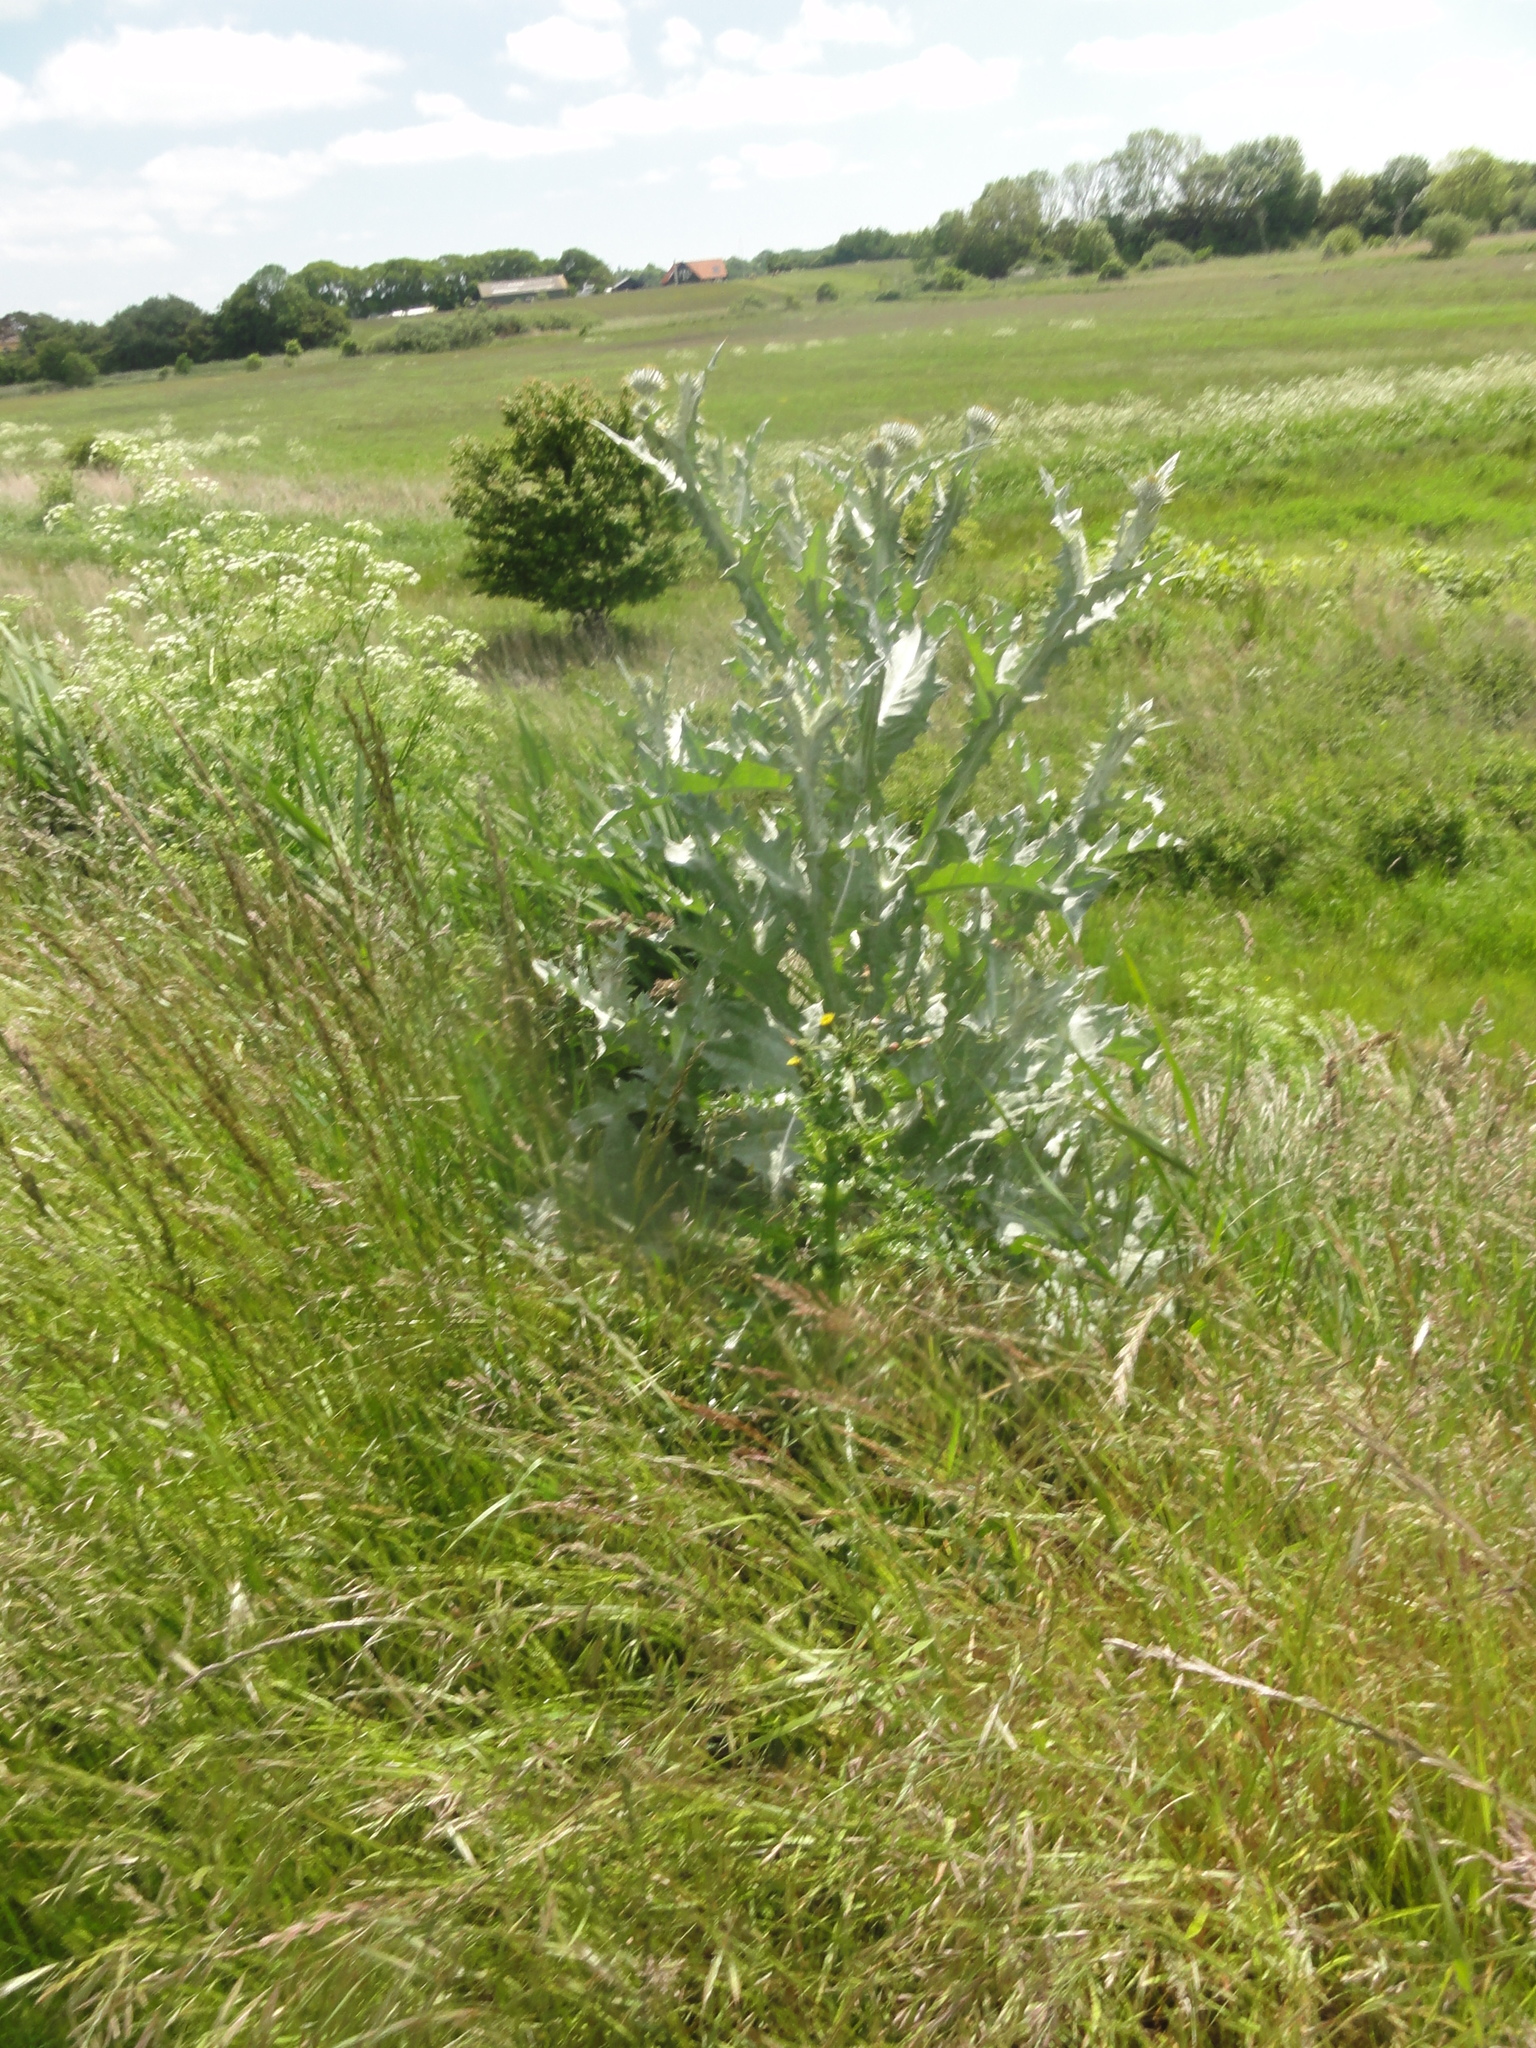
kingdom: Plantae
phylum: Tracheophyta
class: Magnoliopsida
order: Asterales
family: Asteraceae
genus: Onopordum
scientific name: Onopordum acanthium
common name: Scotch thistle
